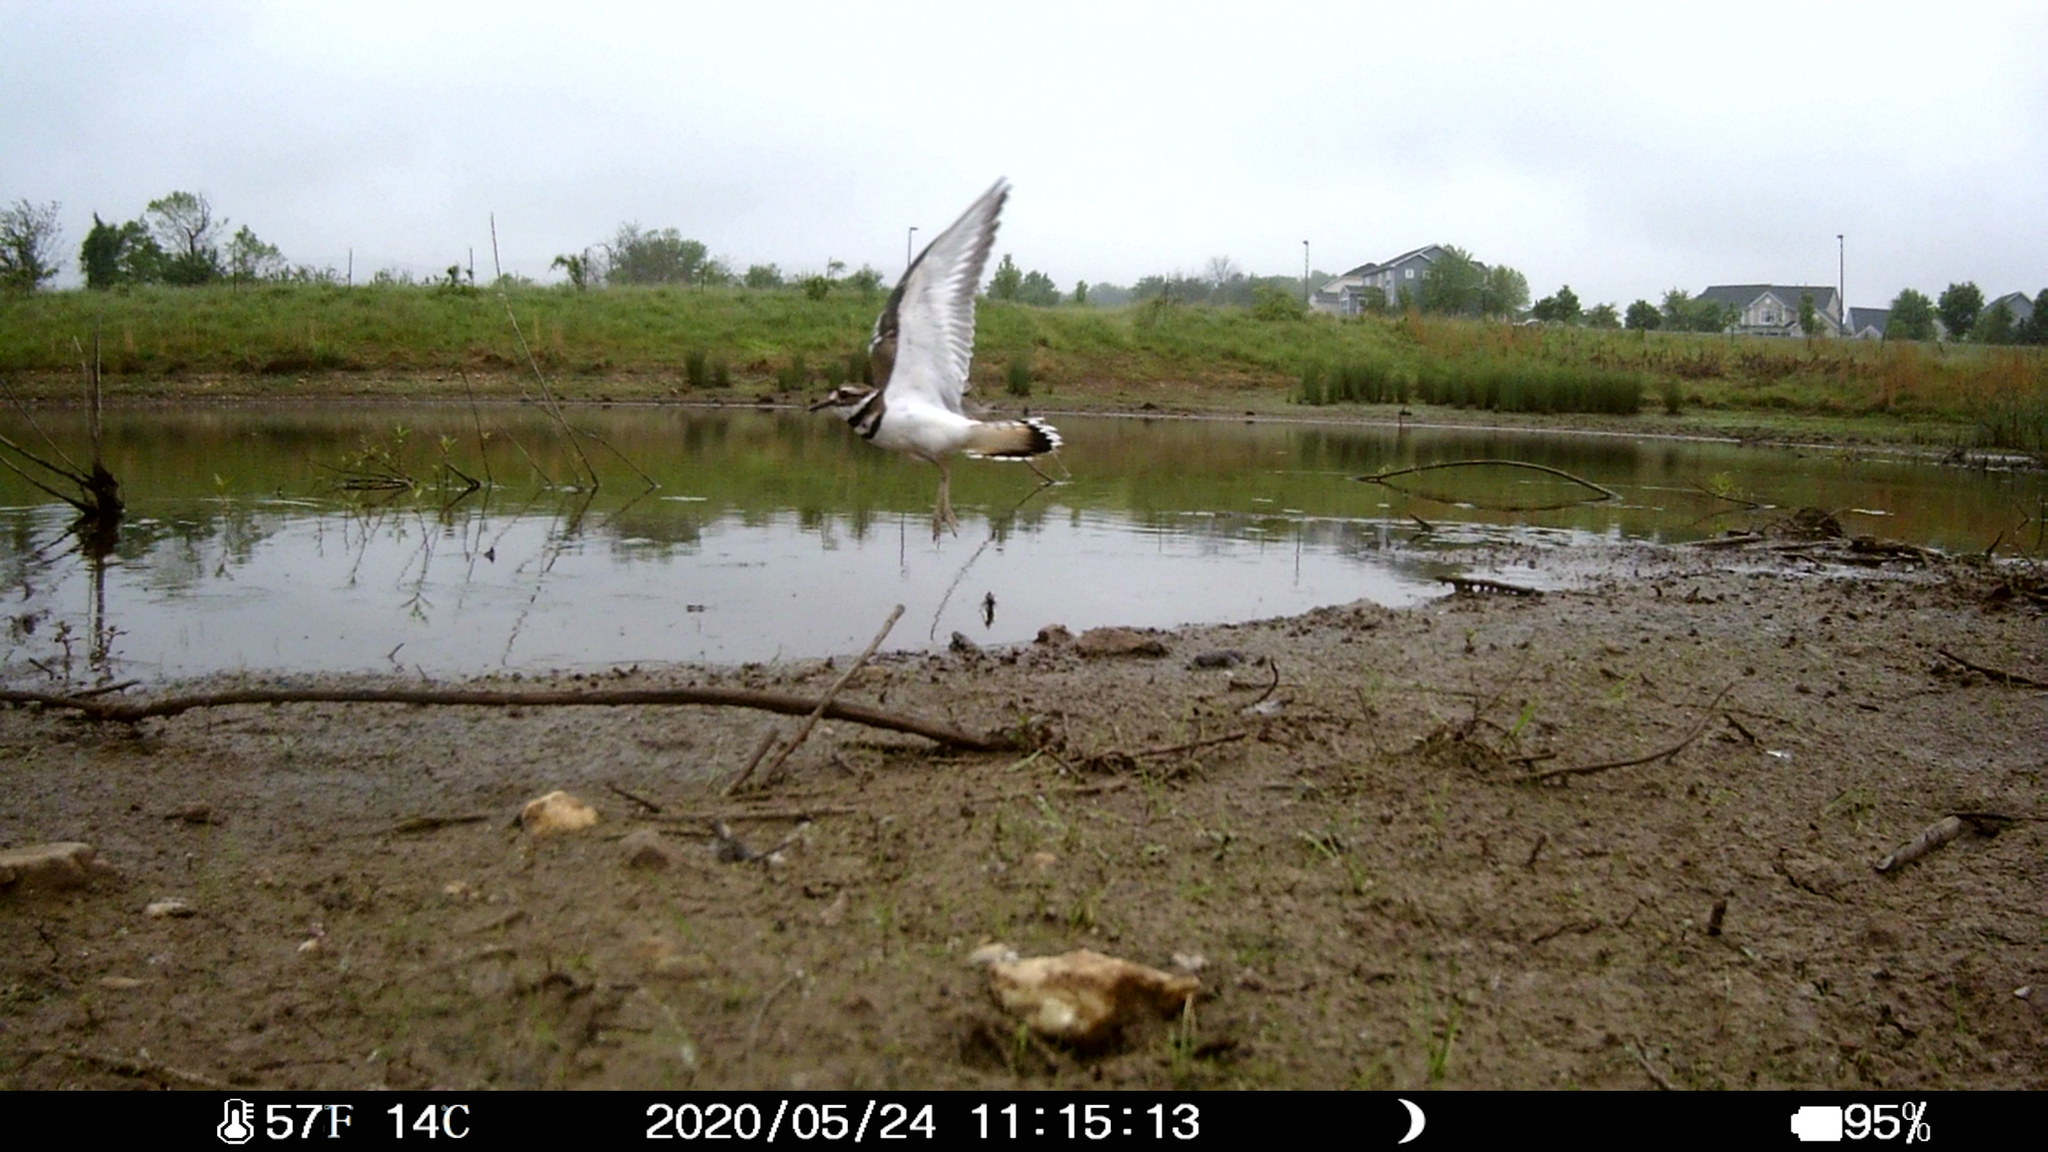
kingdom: Animalia
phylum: Chordata
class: Aves
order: Charadriiformes
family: Charadriidae
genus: Charadrius
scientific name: Charadrius vociferus
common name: Killdeer
